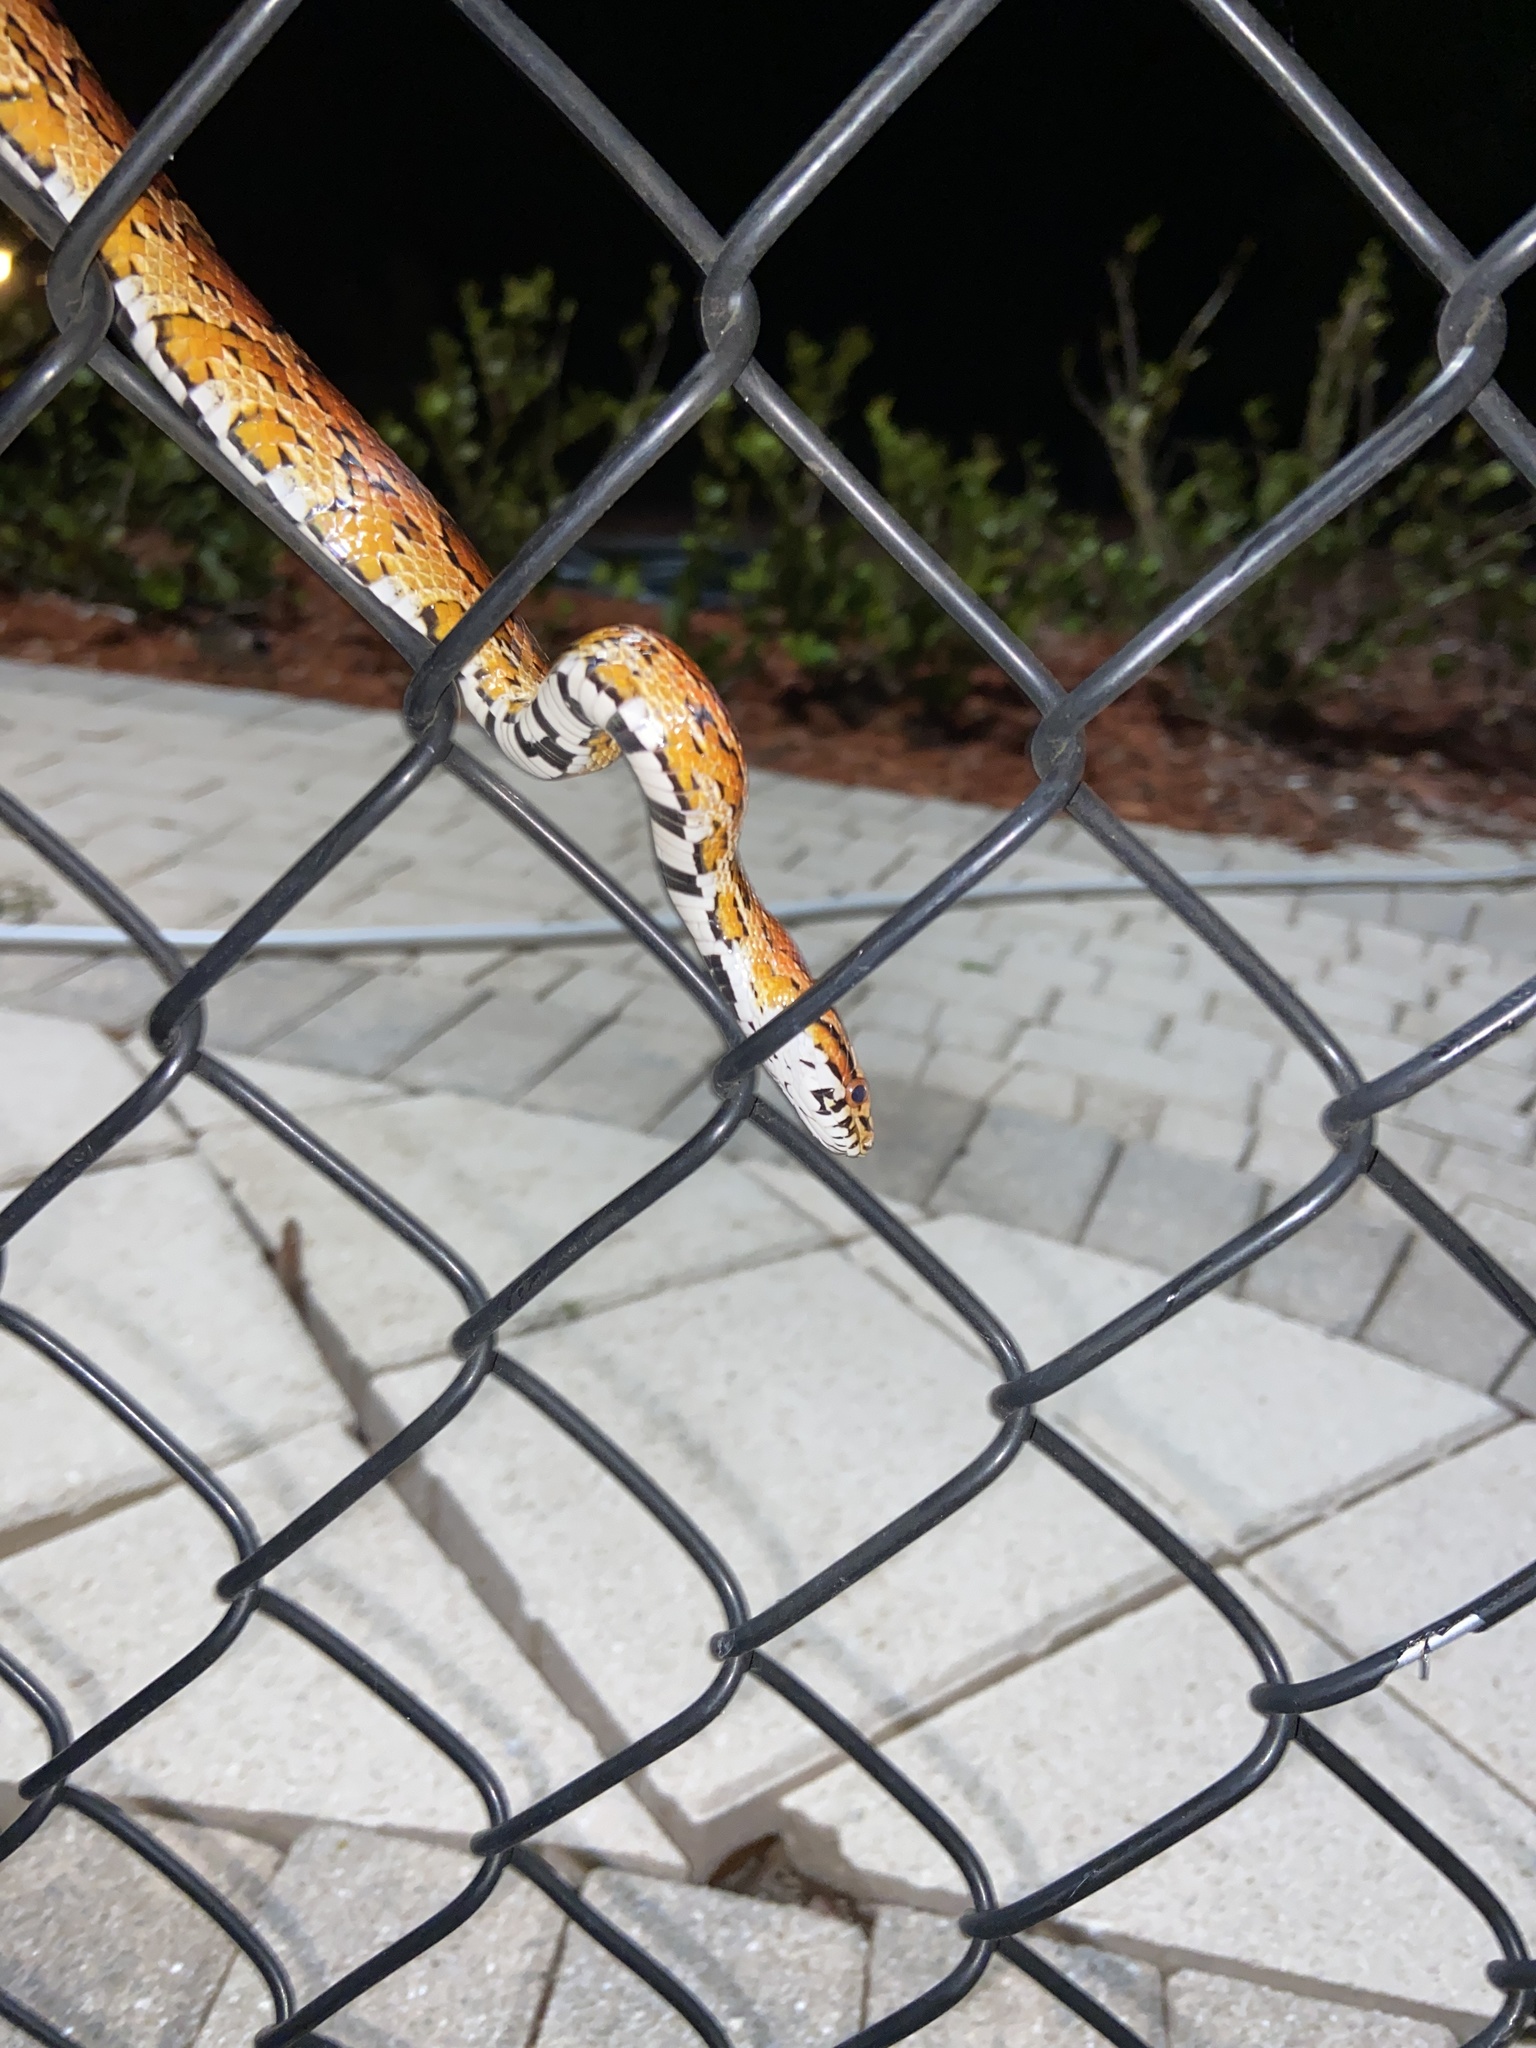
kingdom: Animalia
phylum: Chordata
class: Squamata
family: Colubridae
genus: Pantherophis
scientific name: Pantherophis guttatus
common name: Red cornsnake
